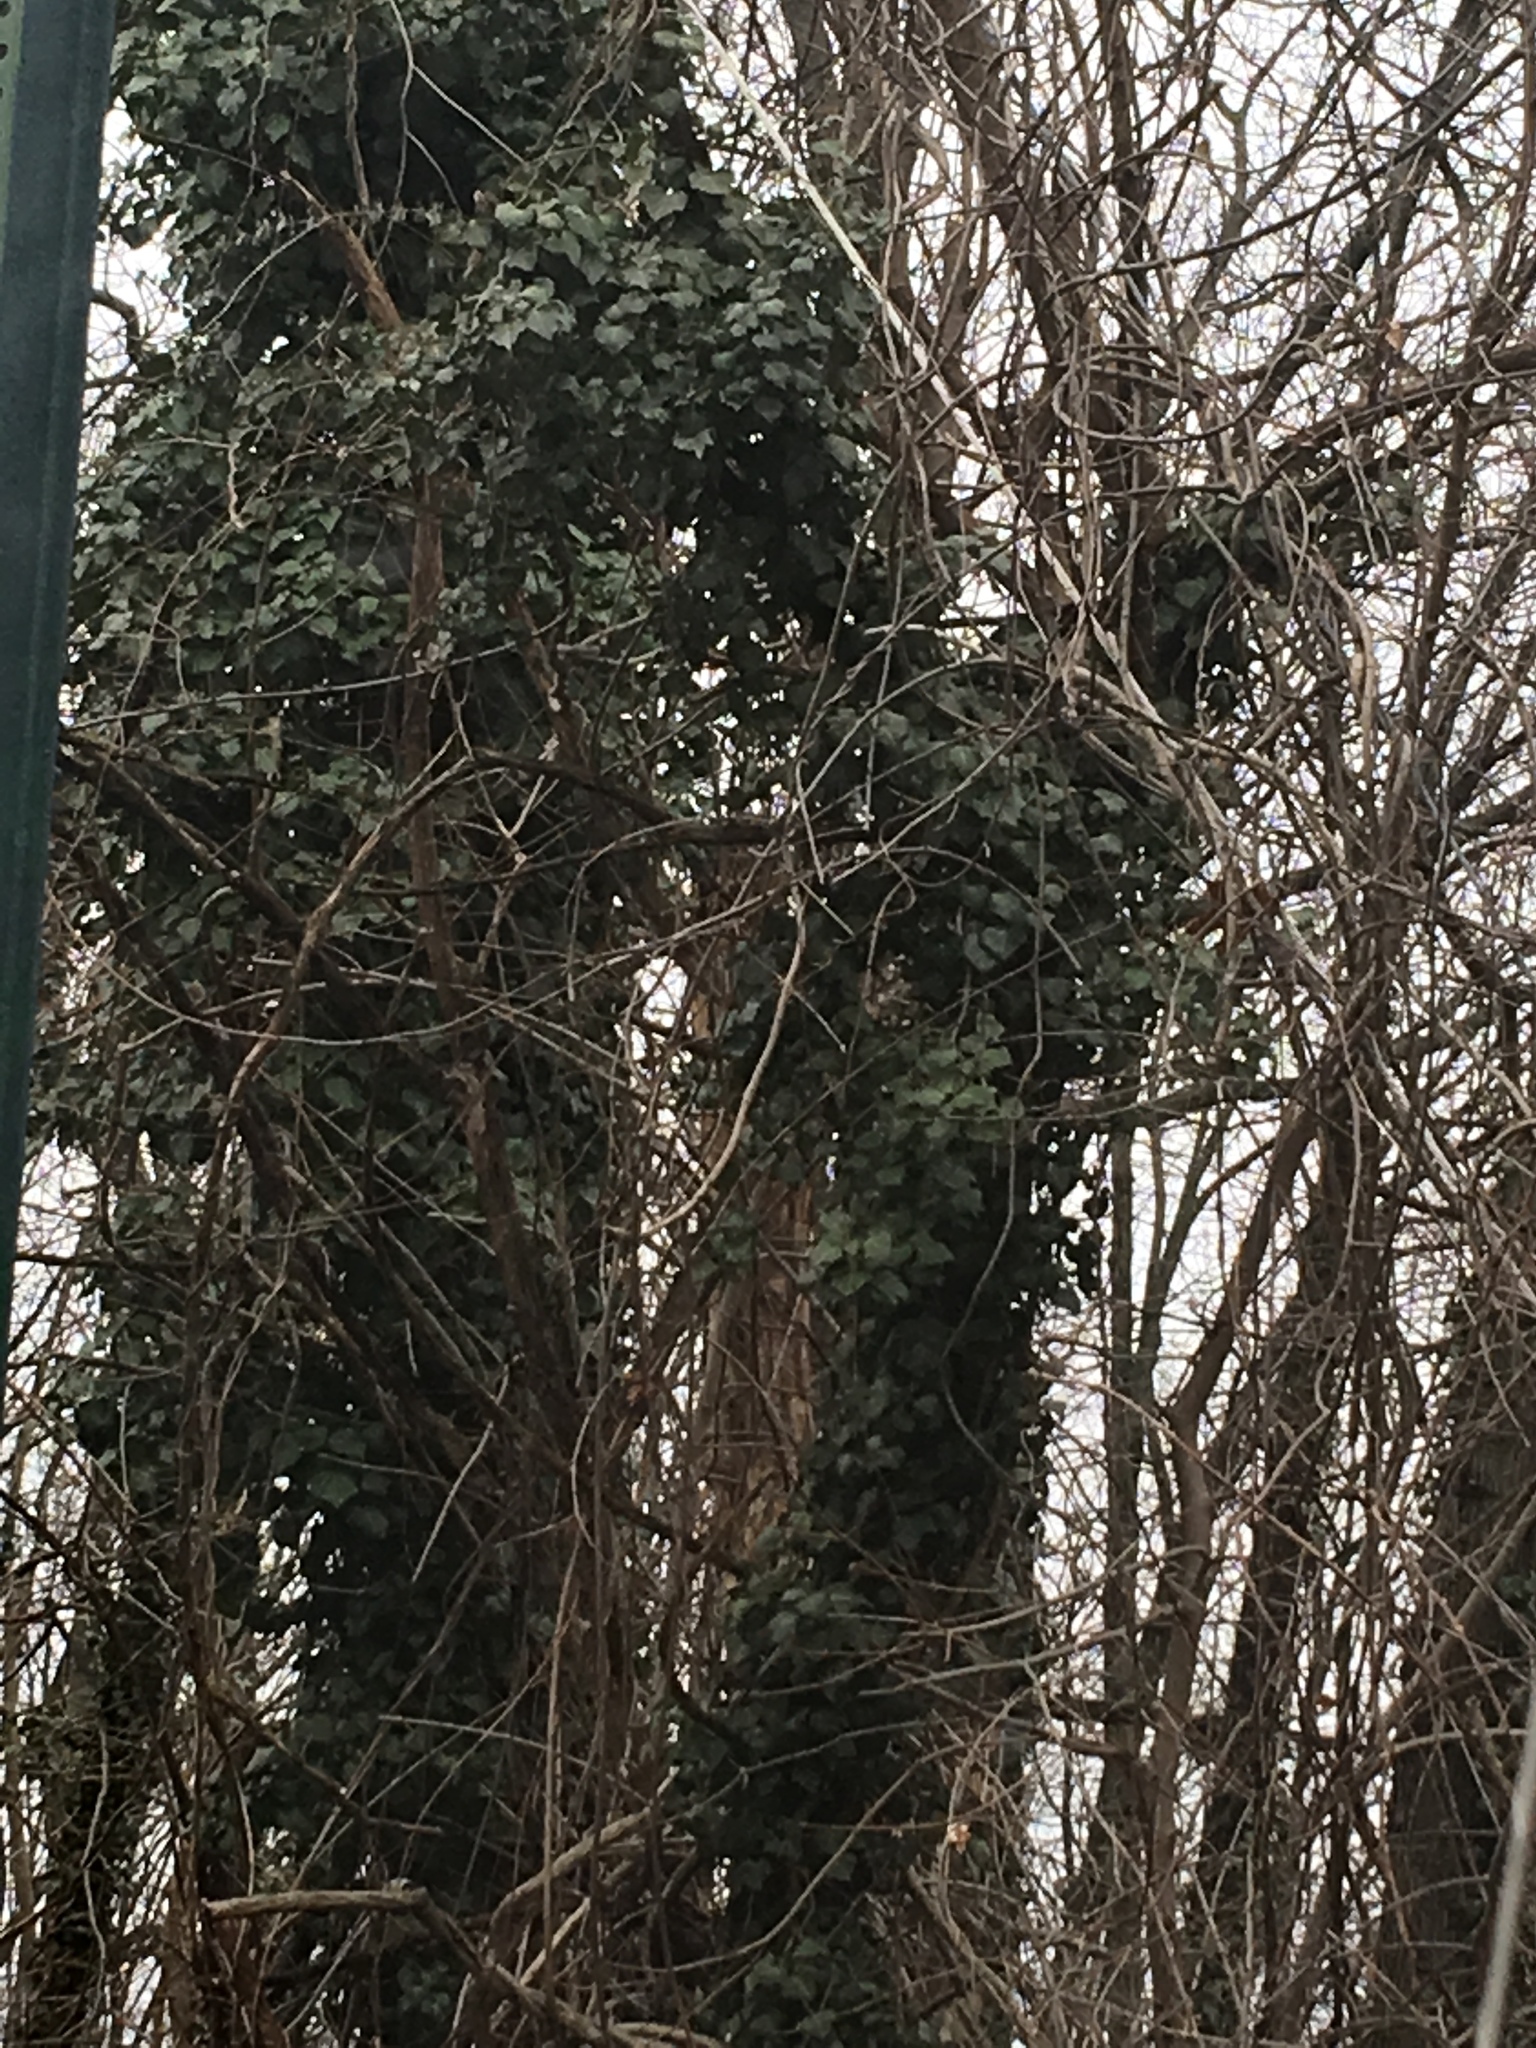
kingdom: Plantae
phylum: Tracheophyta
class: Magnoliopsida
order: Apiales
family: Araliaceae
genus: Hedera
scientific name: Hedera helix
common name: Ivy
